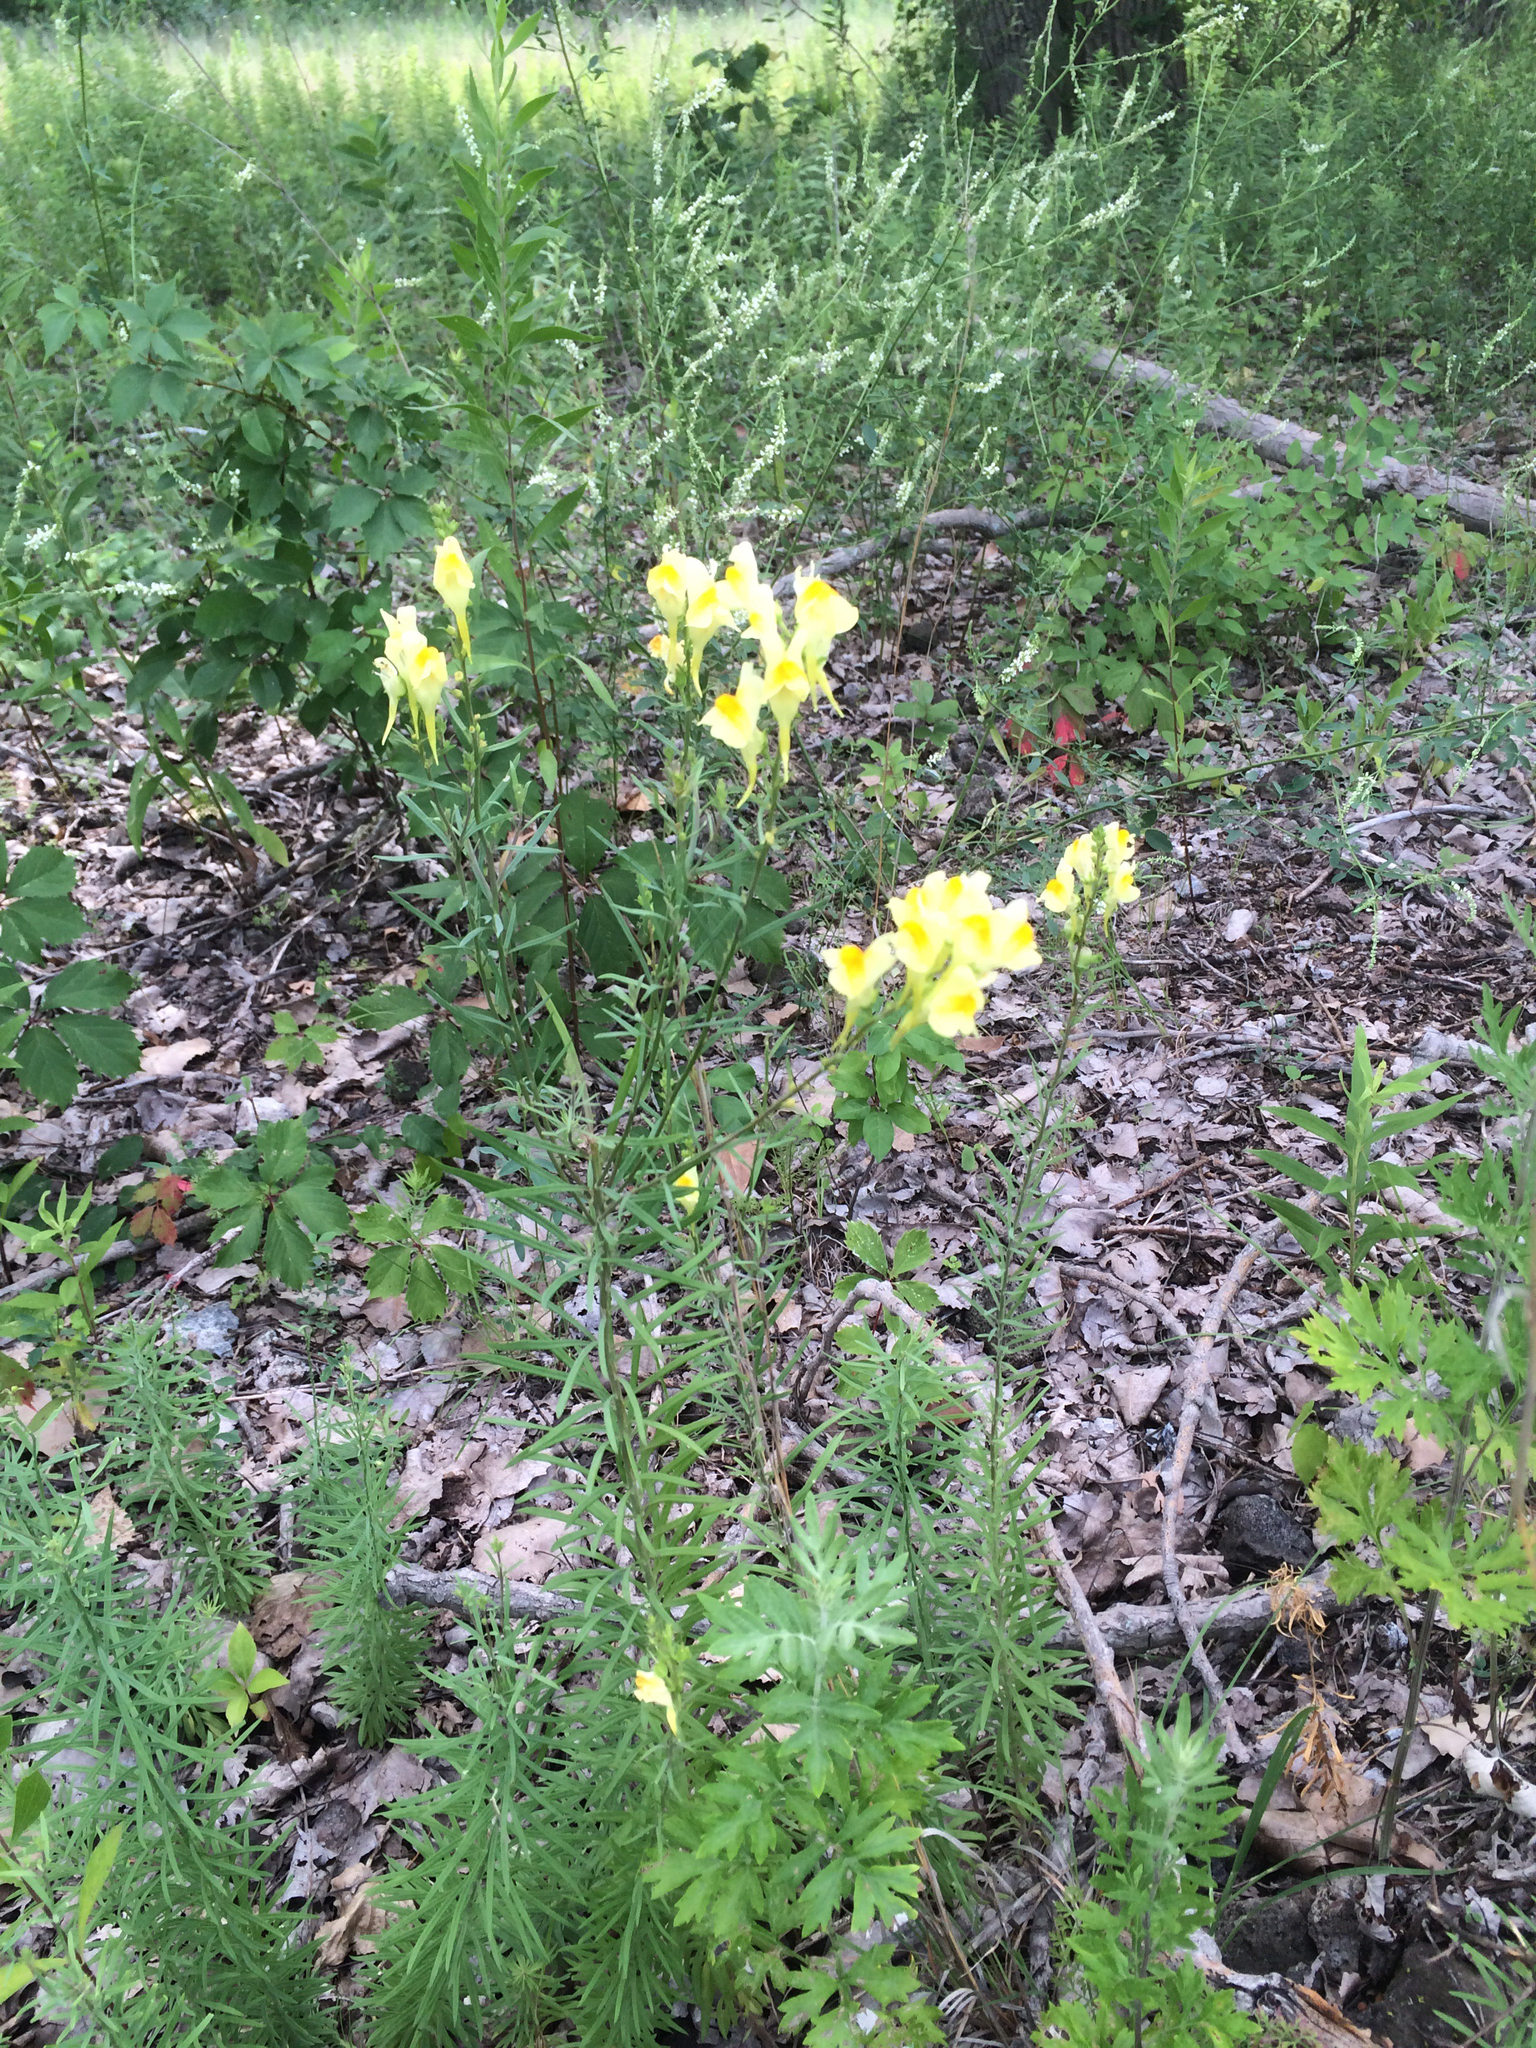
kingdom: Plantae
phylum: Tracheophyta
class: Magnoliopsida
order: Lamiales
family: Plantaginaceae
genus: Linaria
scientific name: Linaria vulgaris
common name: Butter and eggs
